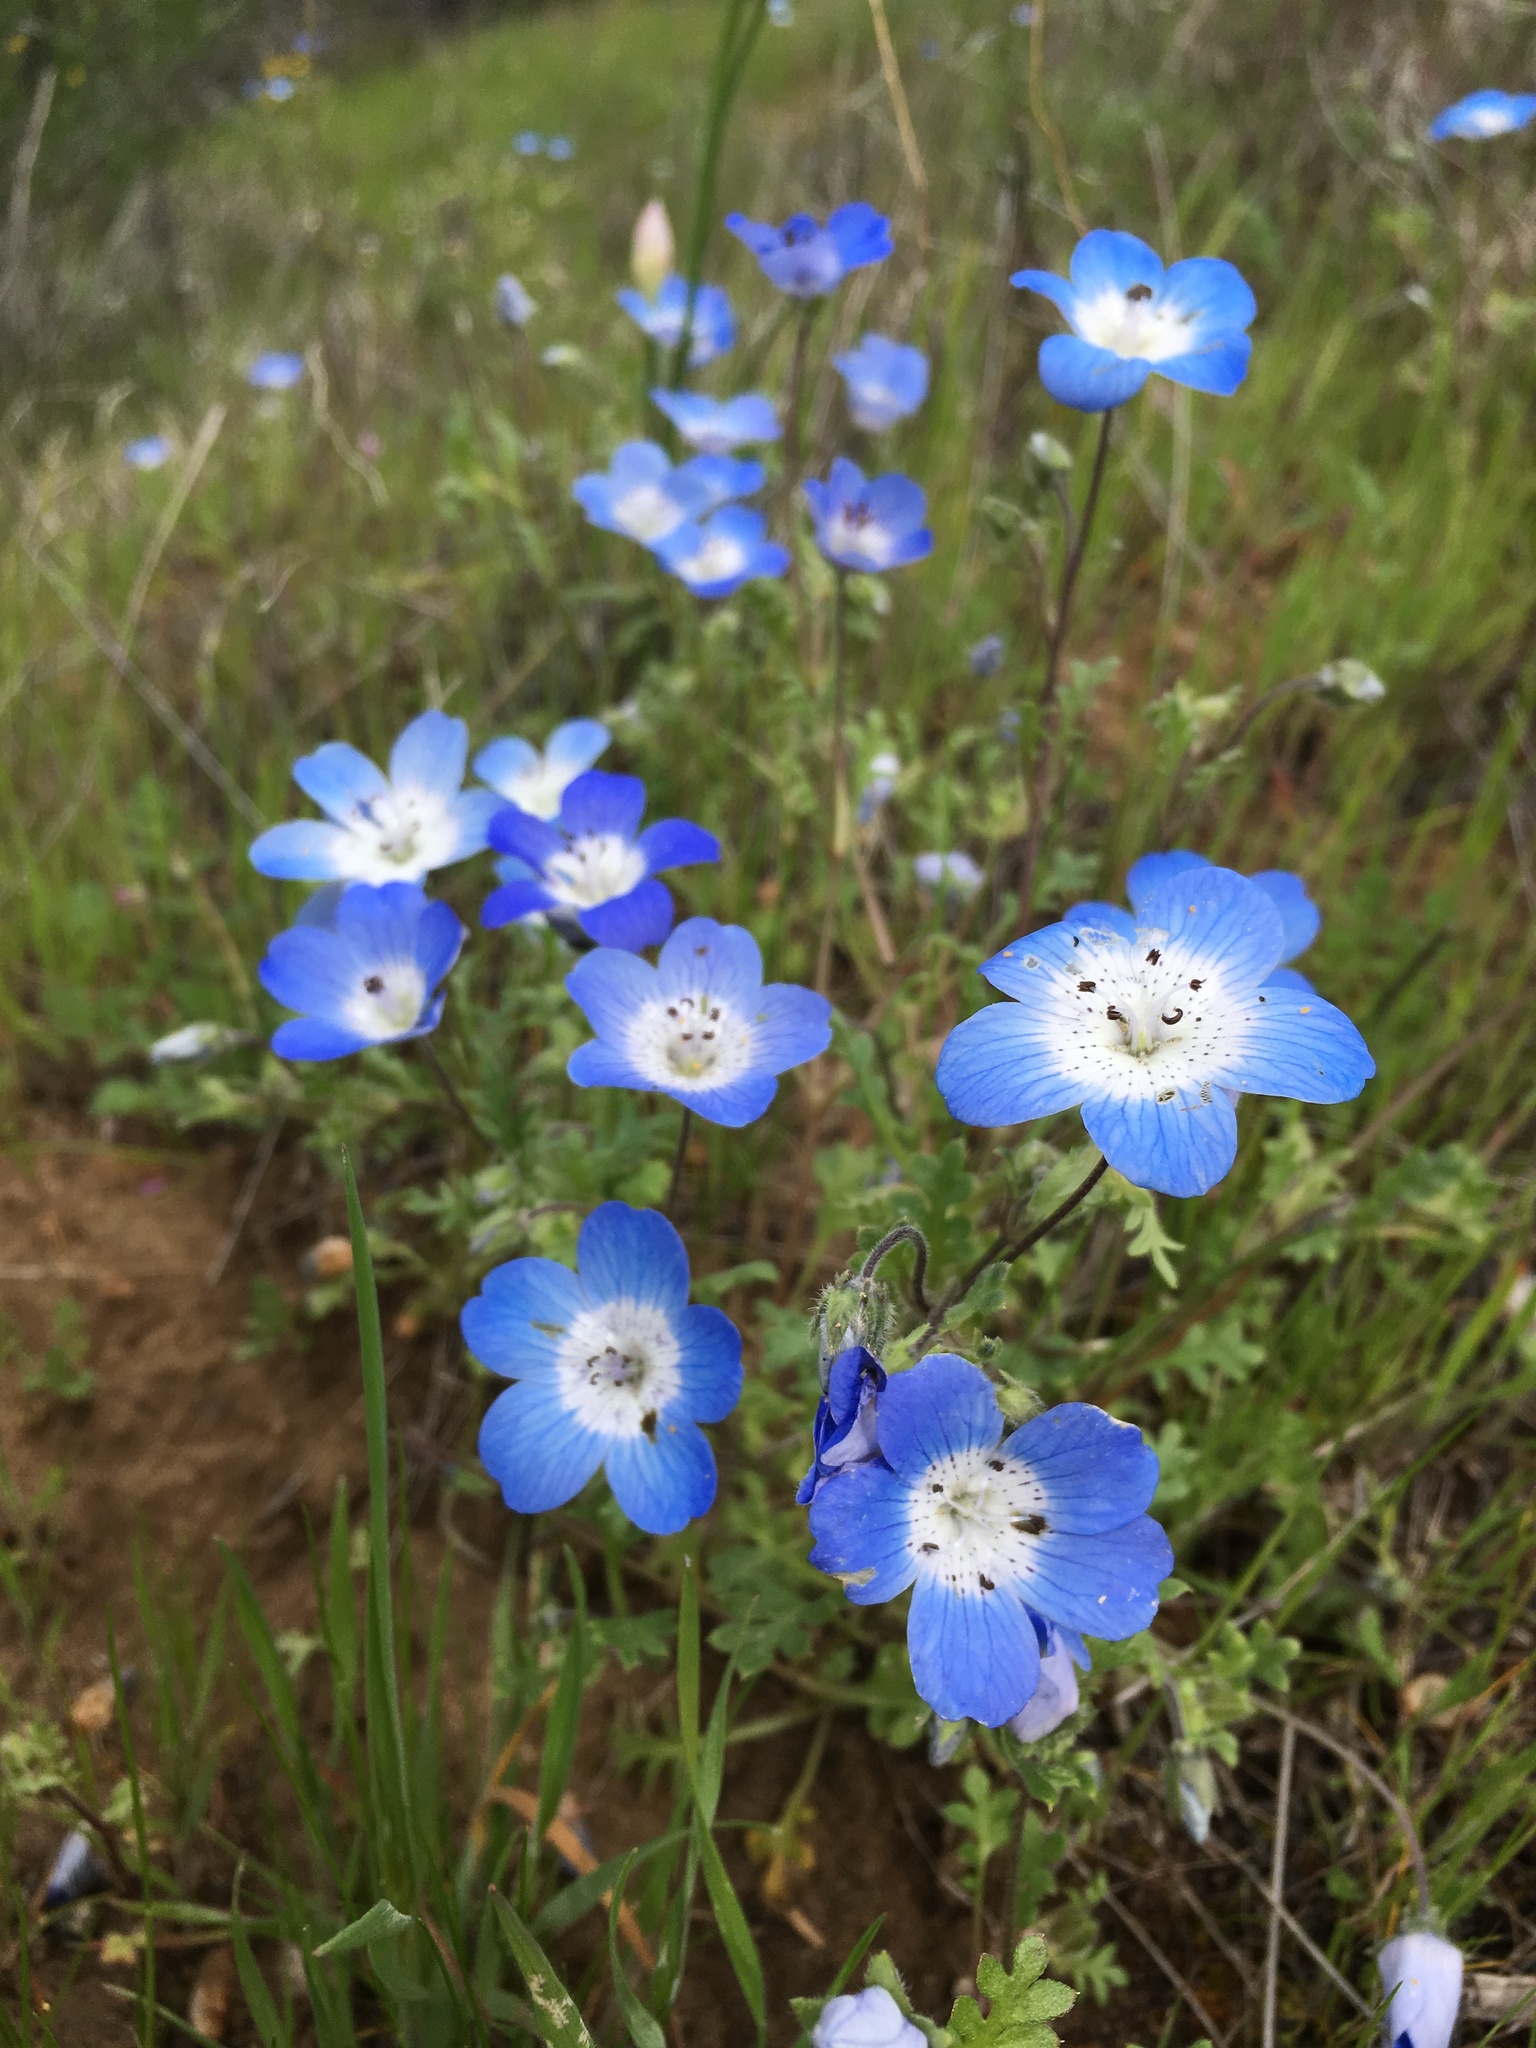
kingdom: Plantae
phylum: Tracheophyta
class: Magnoliopsida
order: Boraginales
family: Hydrophyllaceae
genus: Nemophila
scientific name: Nemophila menziesii
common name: Baby's-blue-eyes
